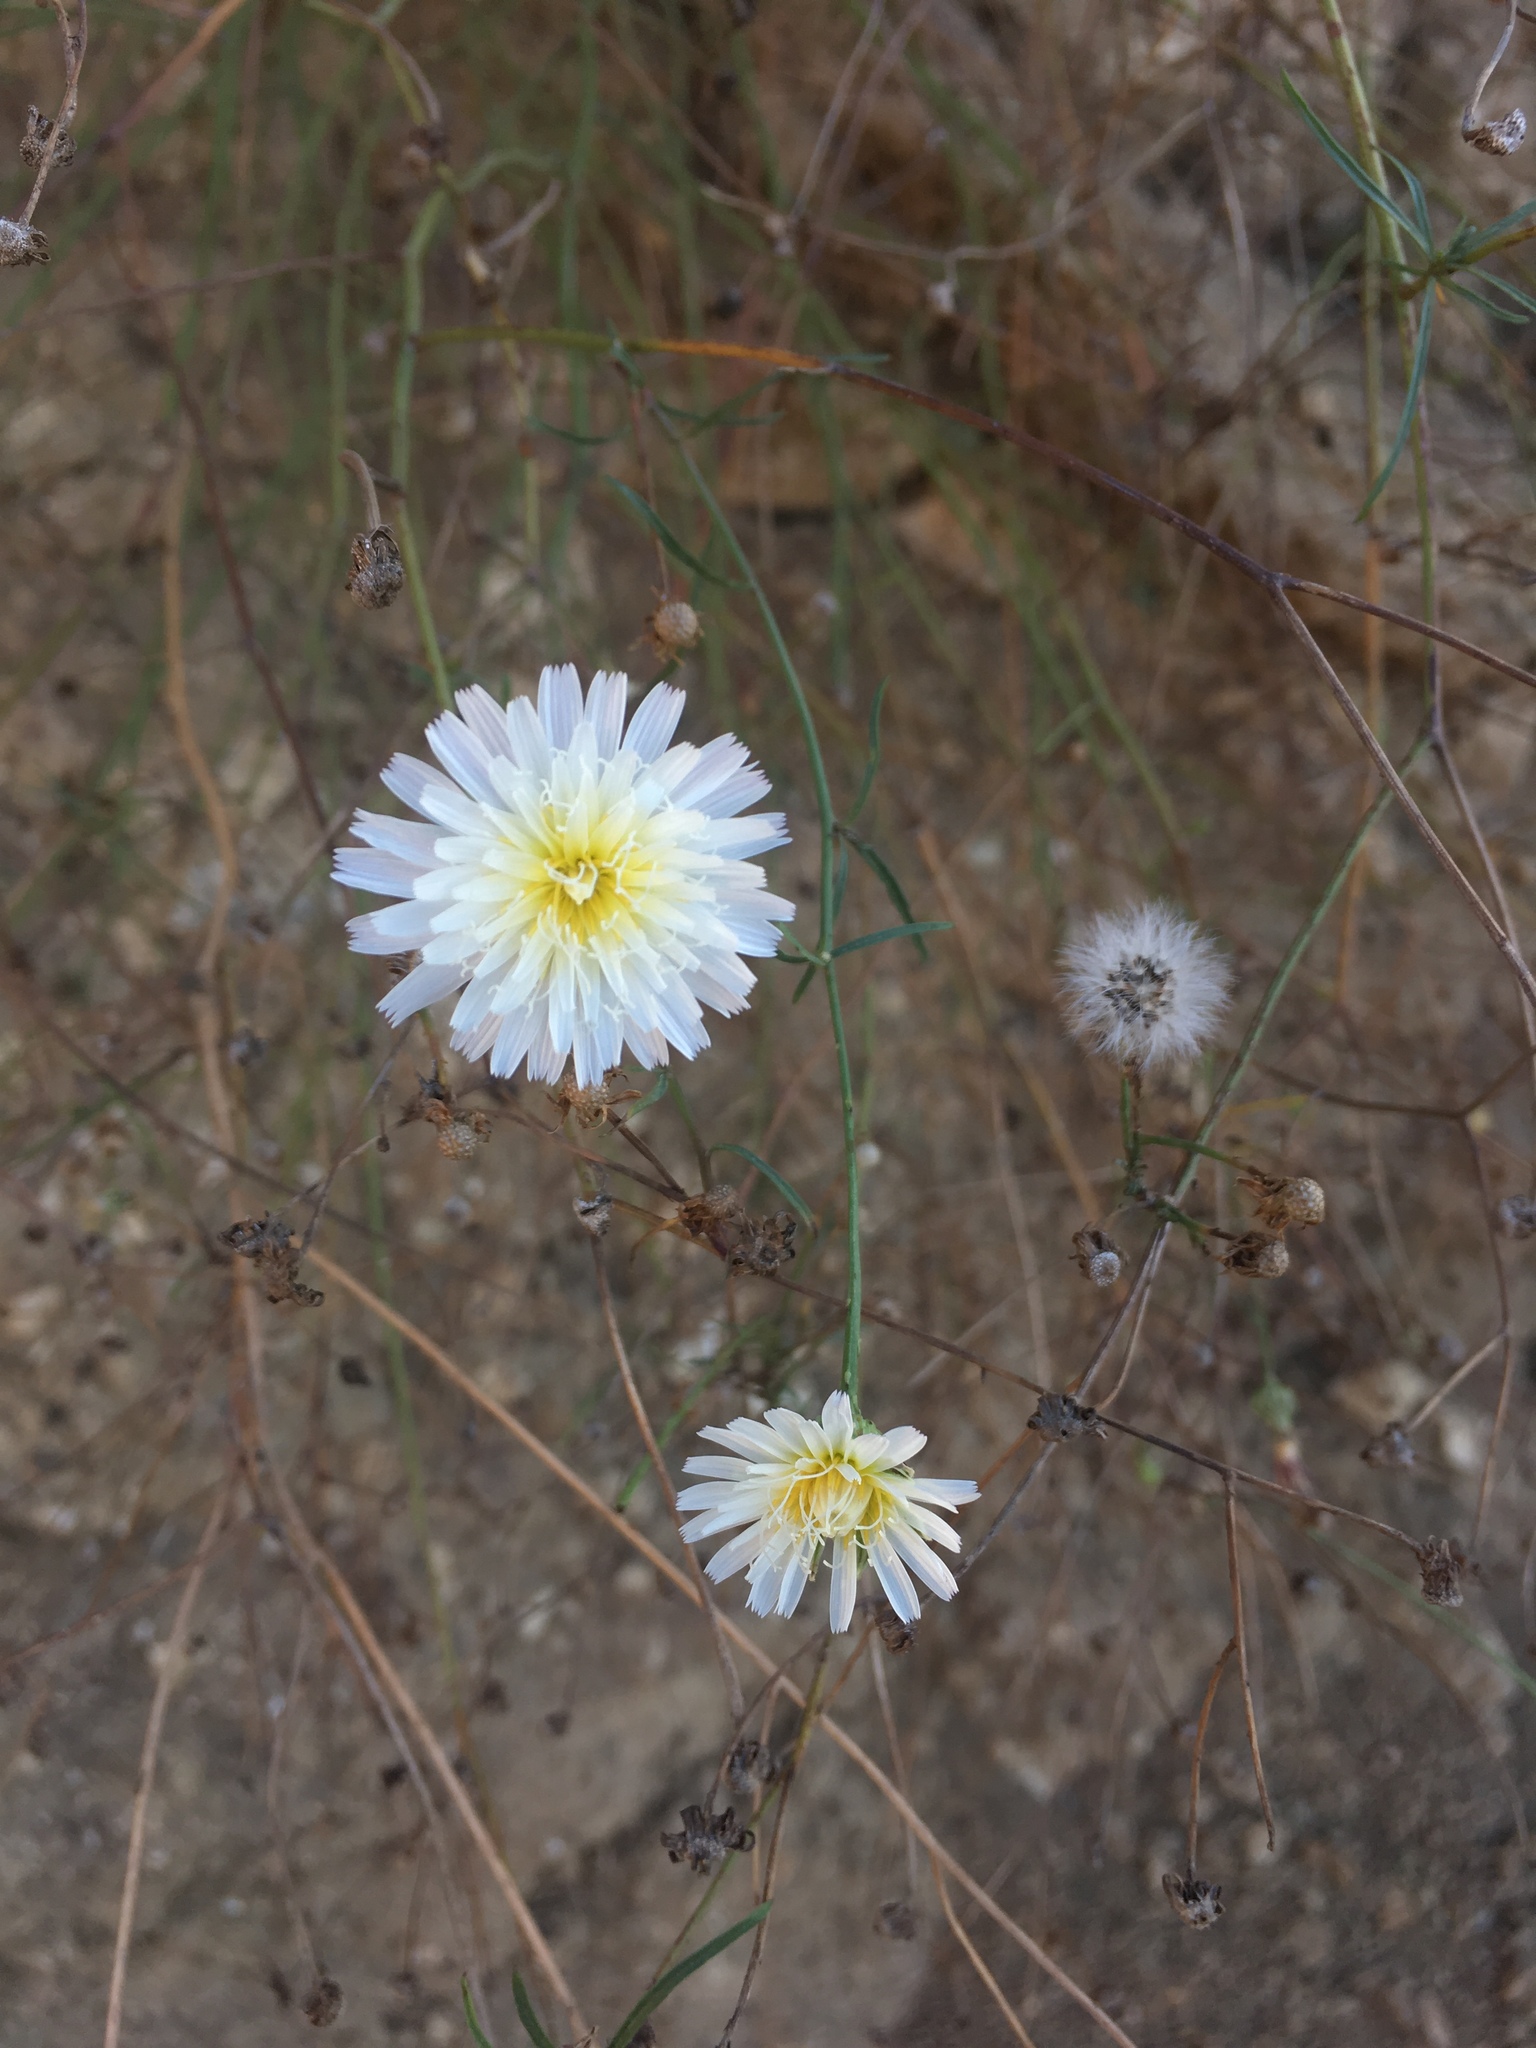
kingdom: Plantae
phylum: Tracheophyta
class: Magnoliopsida
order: Asterales
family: Asteraceae
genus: Malacothrix
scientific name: Malacothrix saxatilis
